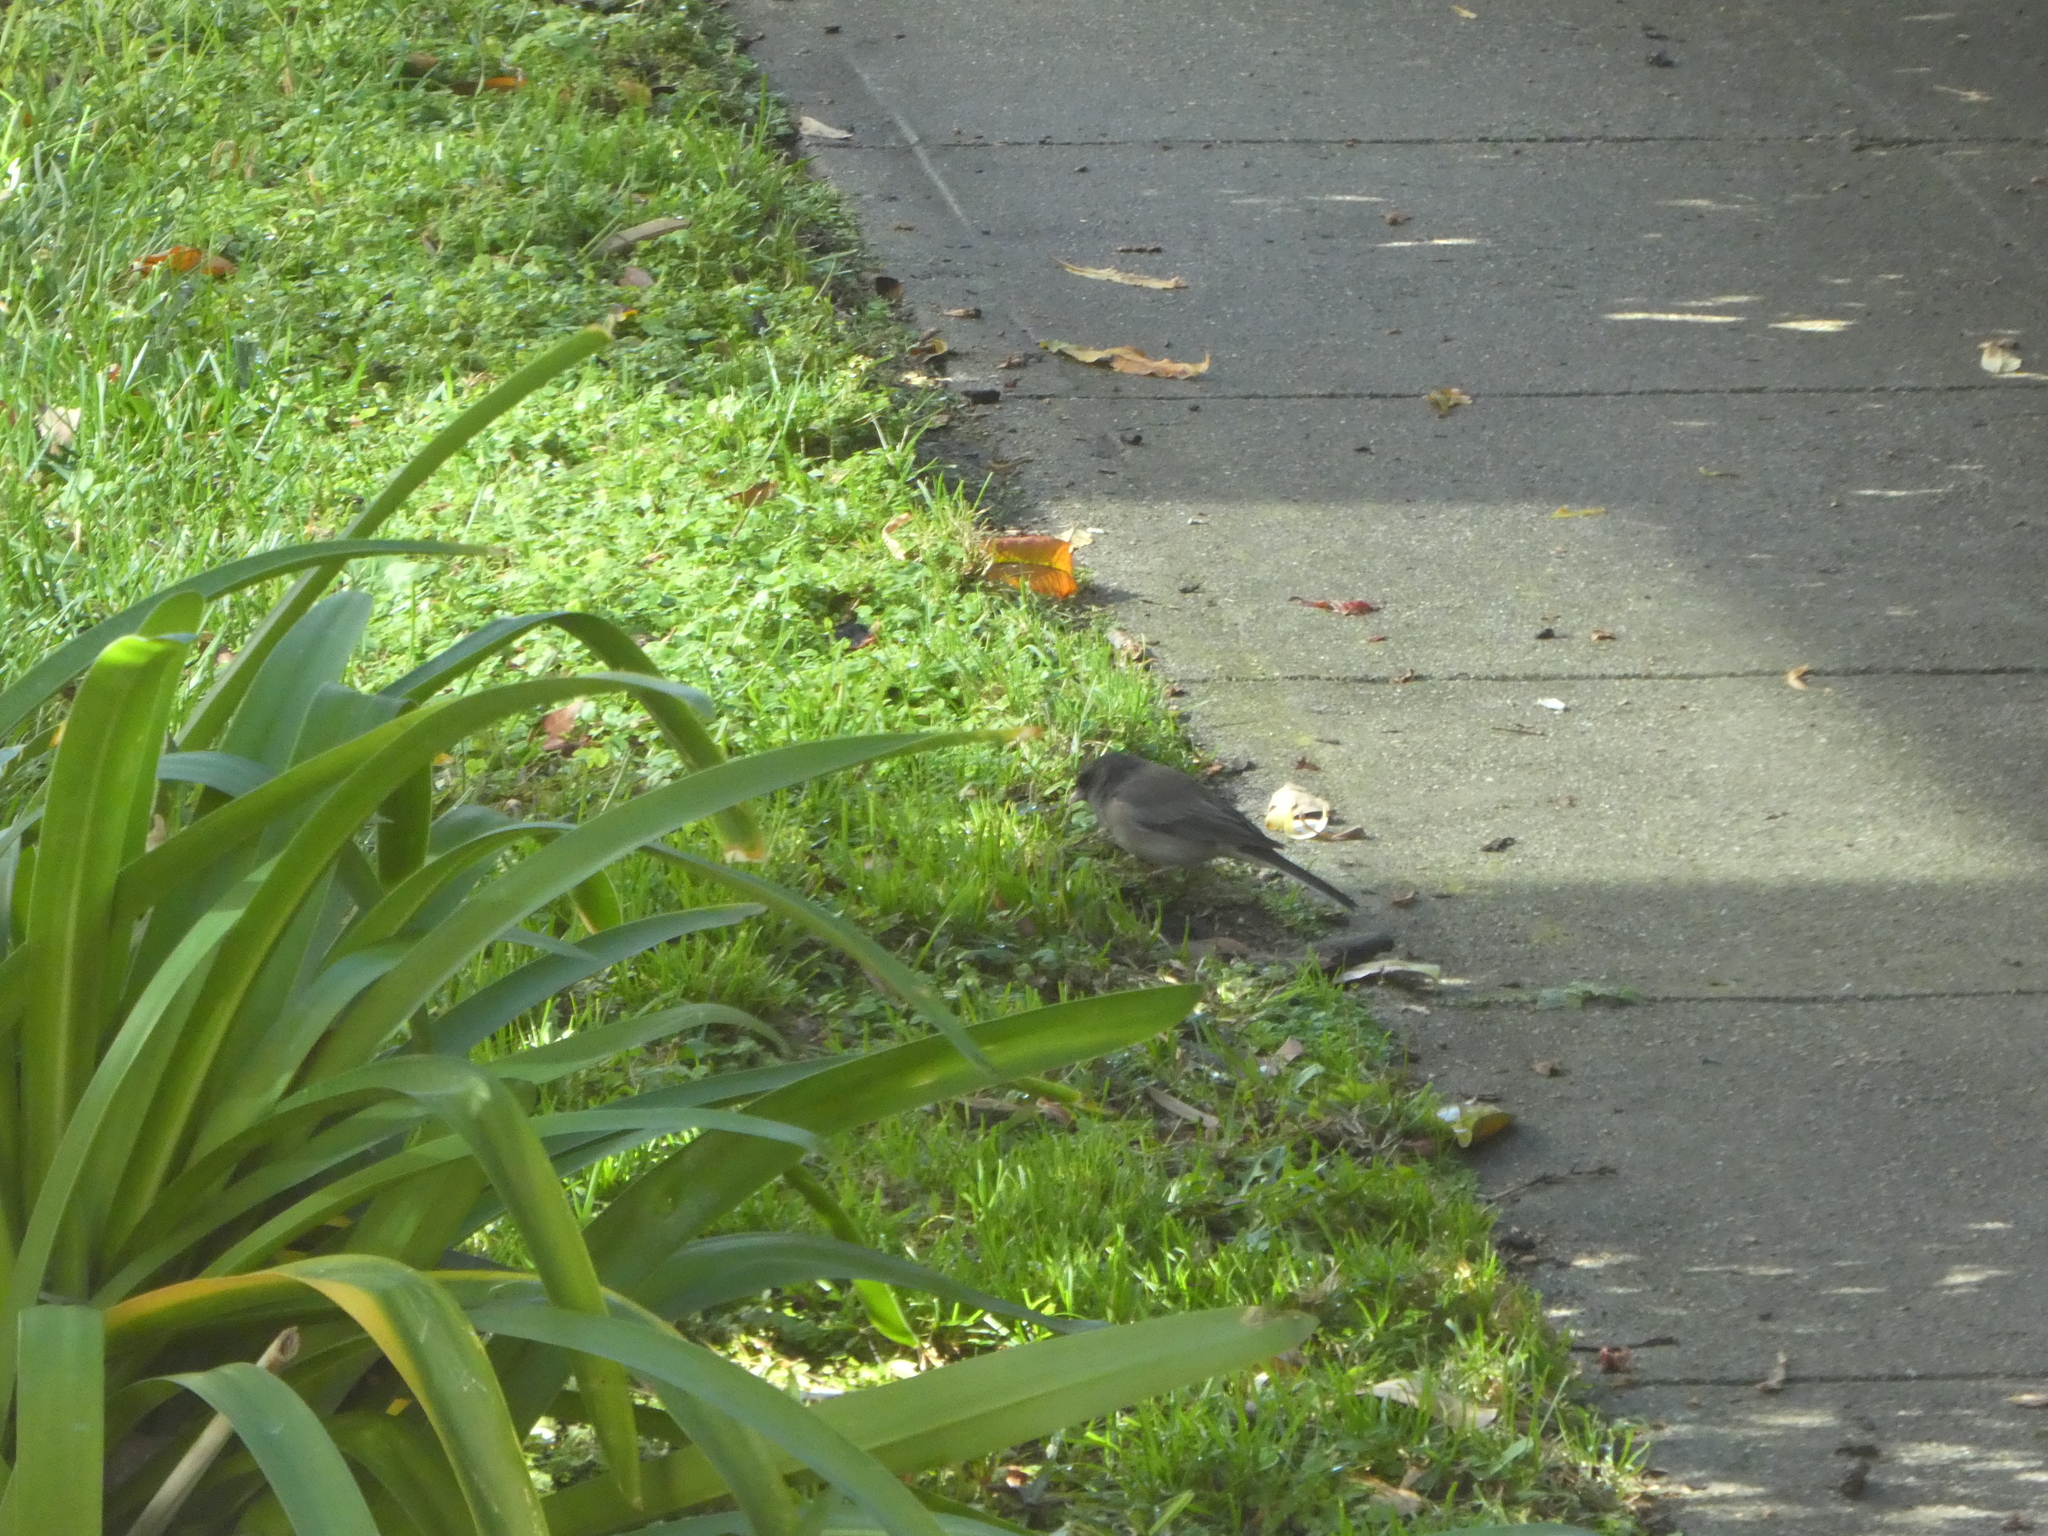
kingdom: Animalia
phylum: Chordata
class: Aves
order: Passeriformes
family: Passerellidae
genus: Junco
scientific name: Junco hyemalis
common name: Dark-eyed junco
